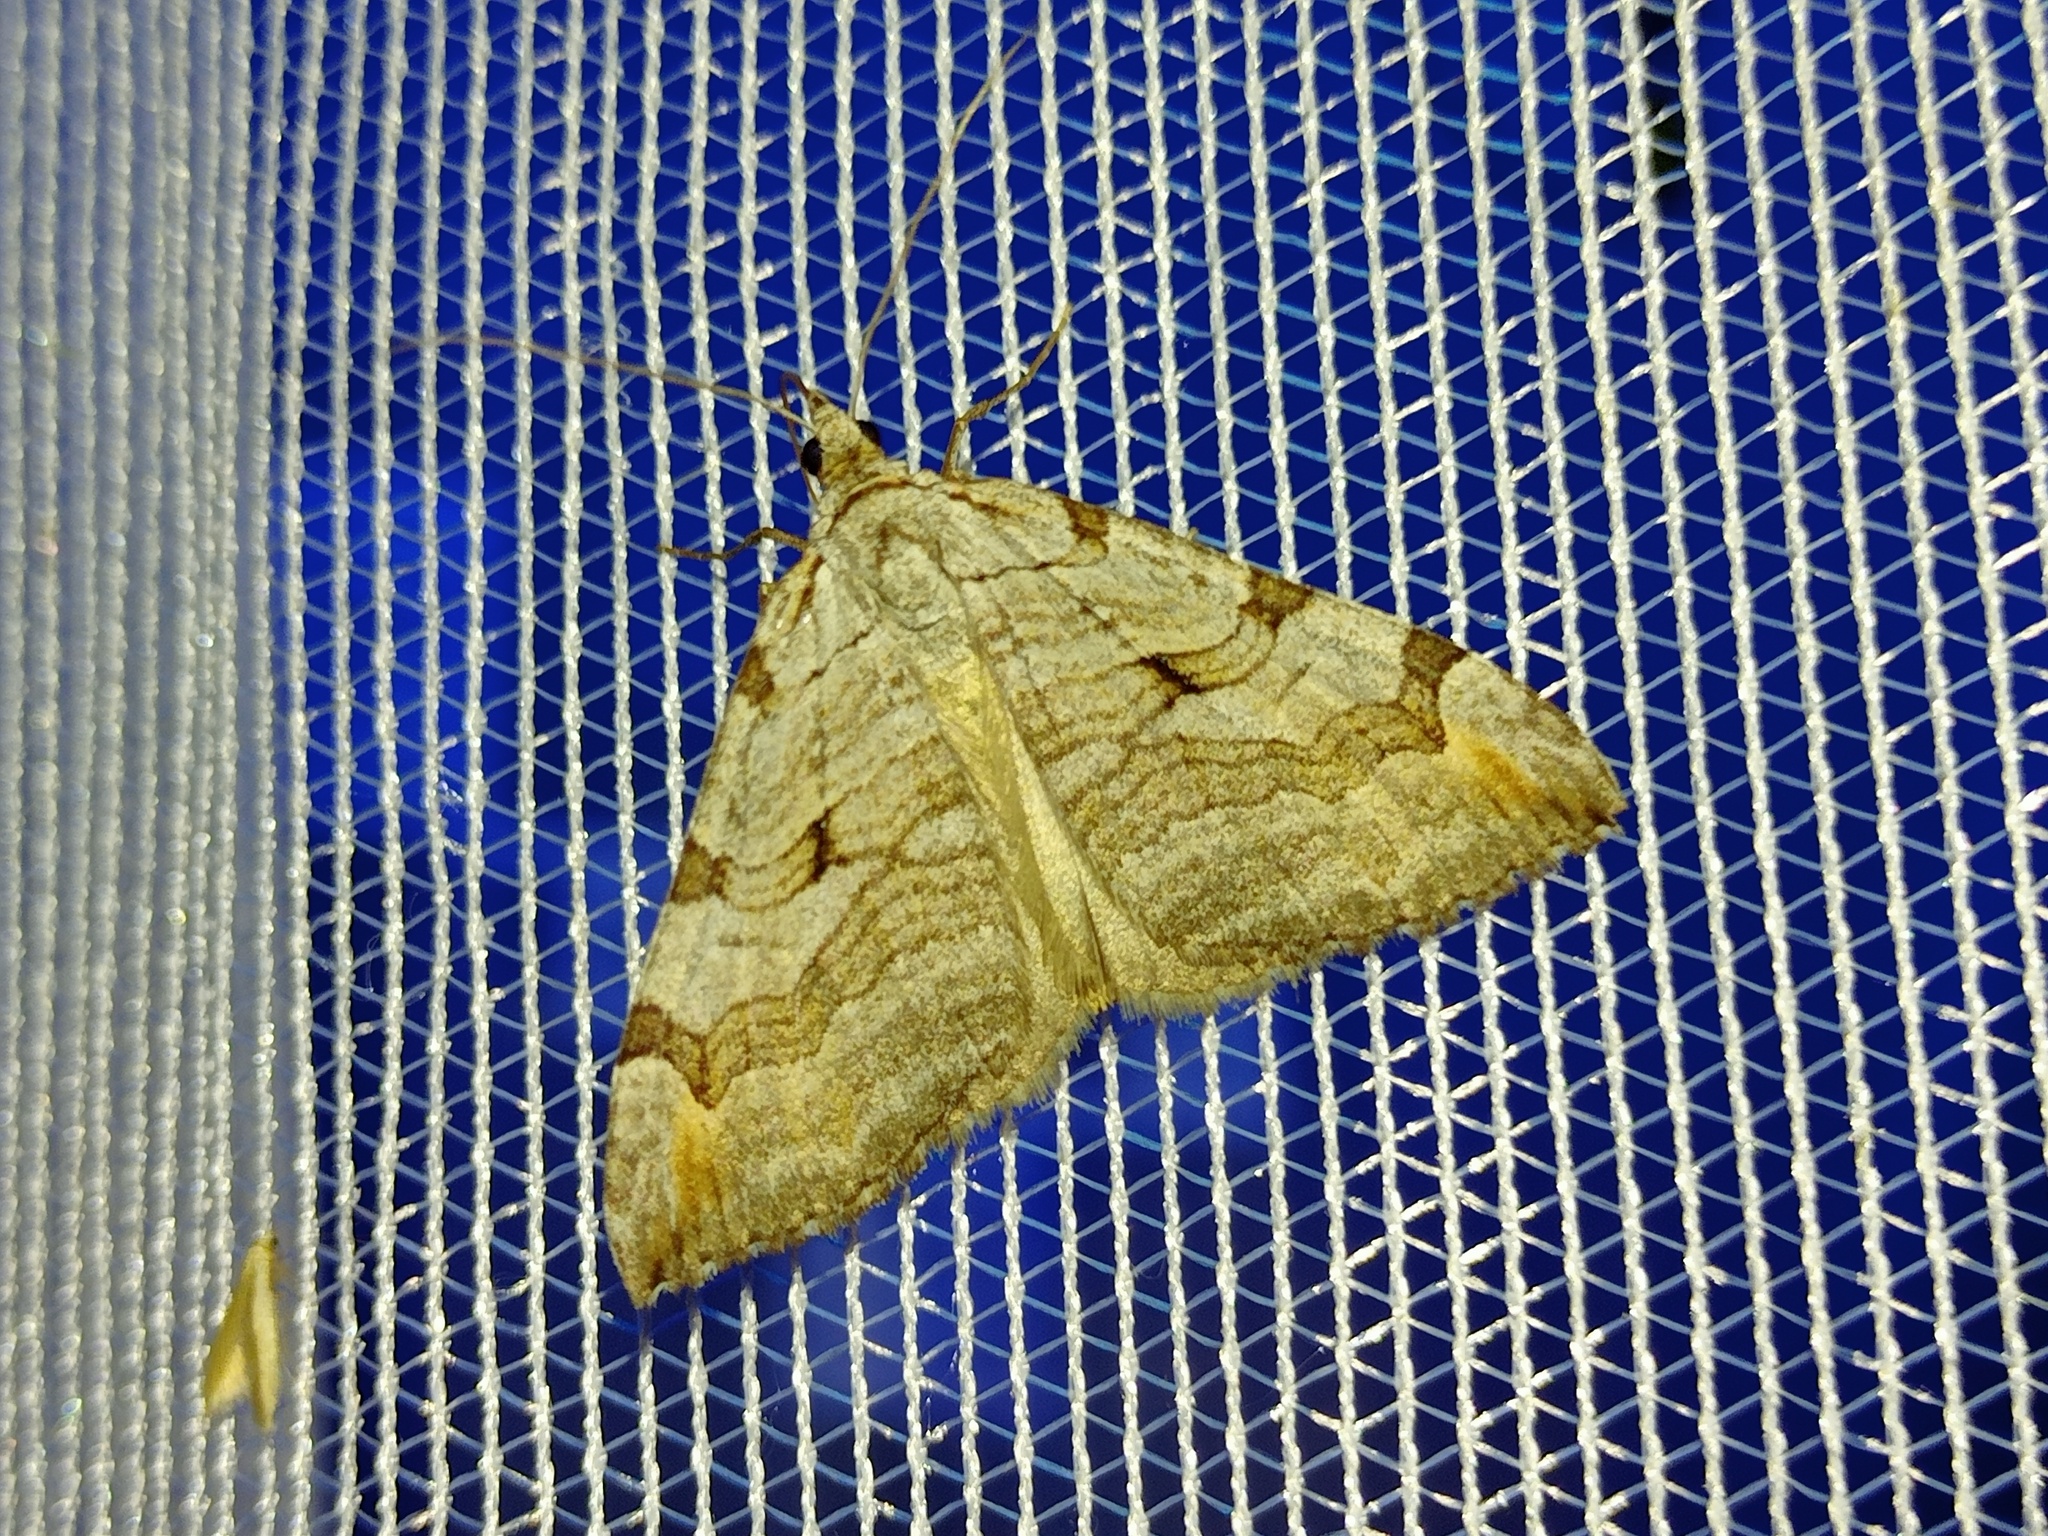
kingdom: Animalia
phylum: Arthropoda
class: Insecta
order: Lepidoptera
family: Geometridae
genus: Aplocera
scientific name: Aplocera plagiata
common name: Treble-bar
